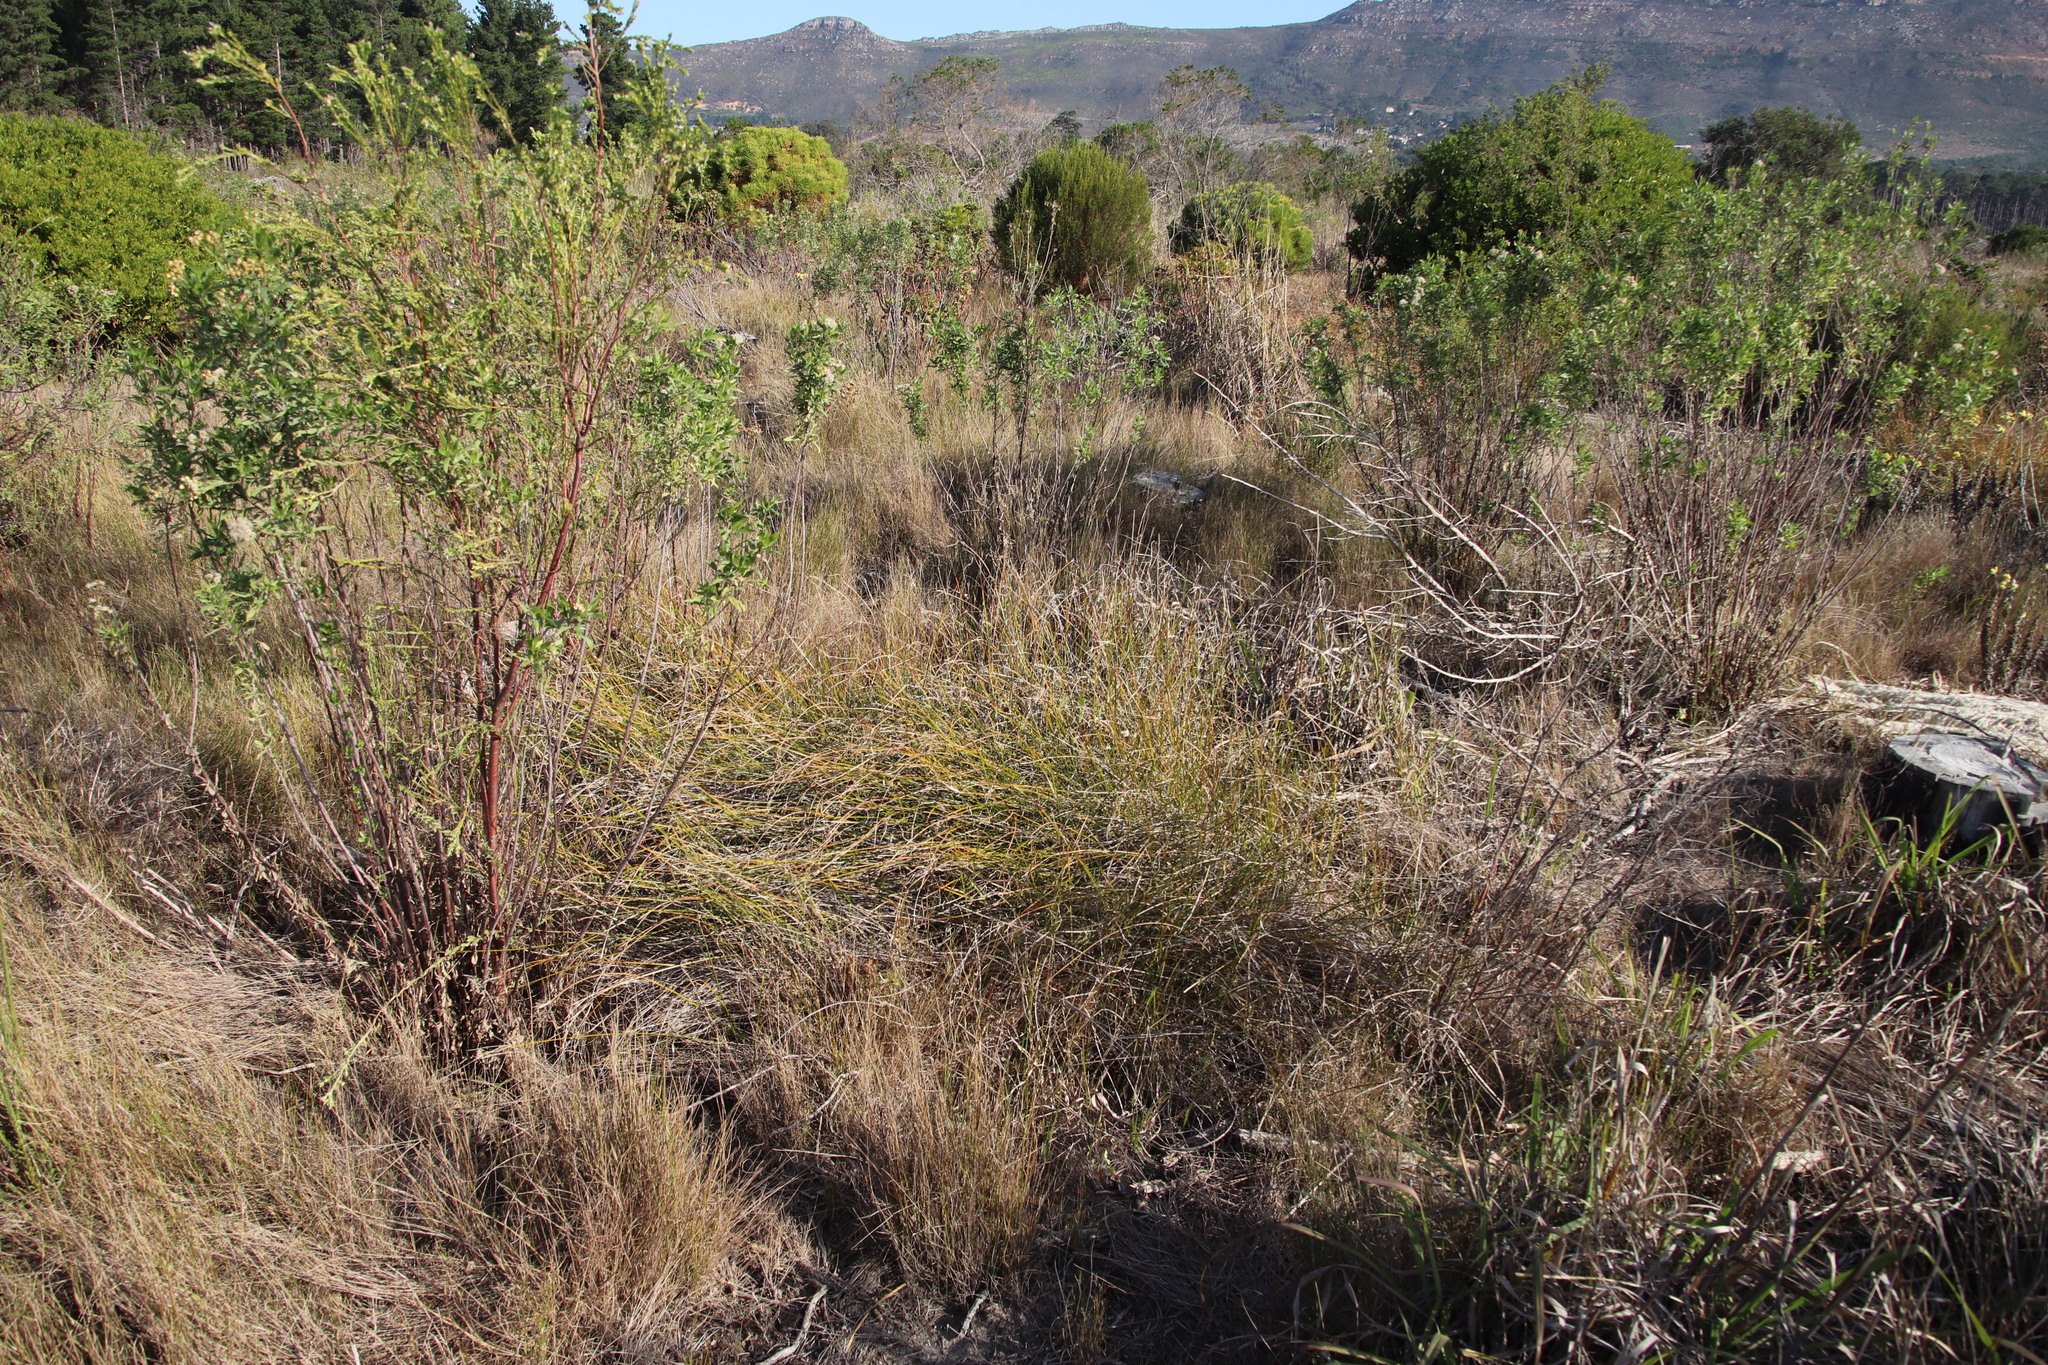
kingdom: Plantae
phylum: Tracheophyta
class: Liliopsida
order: Poales
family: Poaceae
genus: Ehrharta
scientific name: Ehrharta calycina
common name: Perennial veldtgrass
